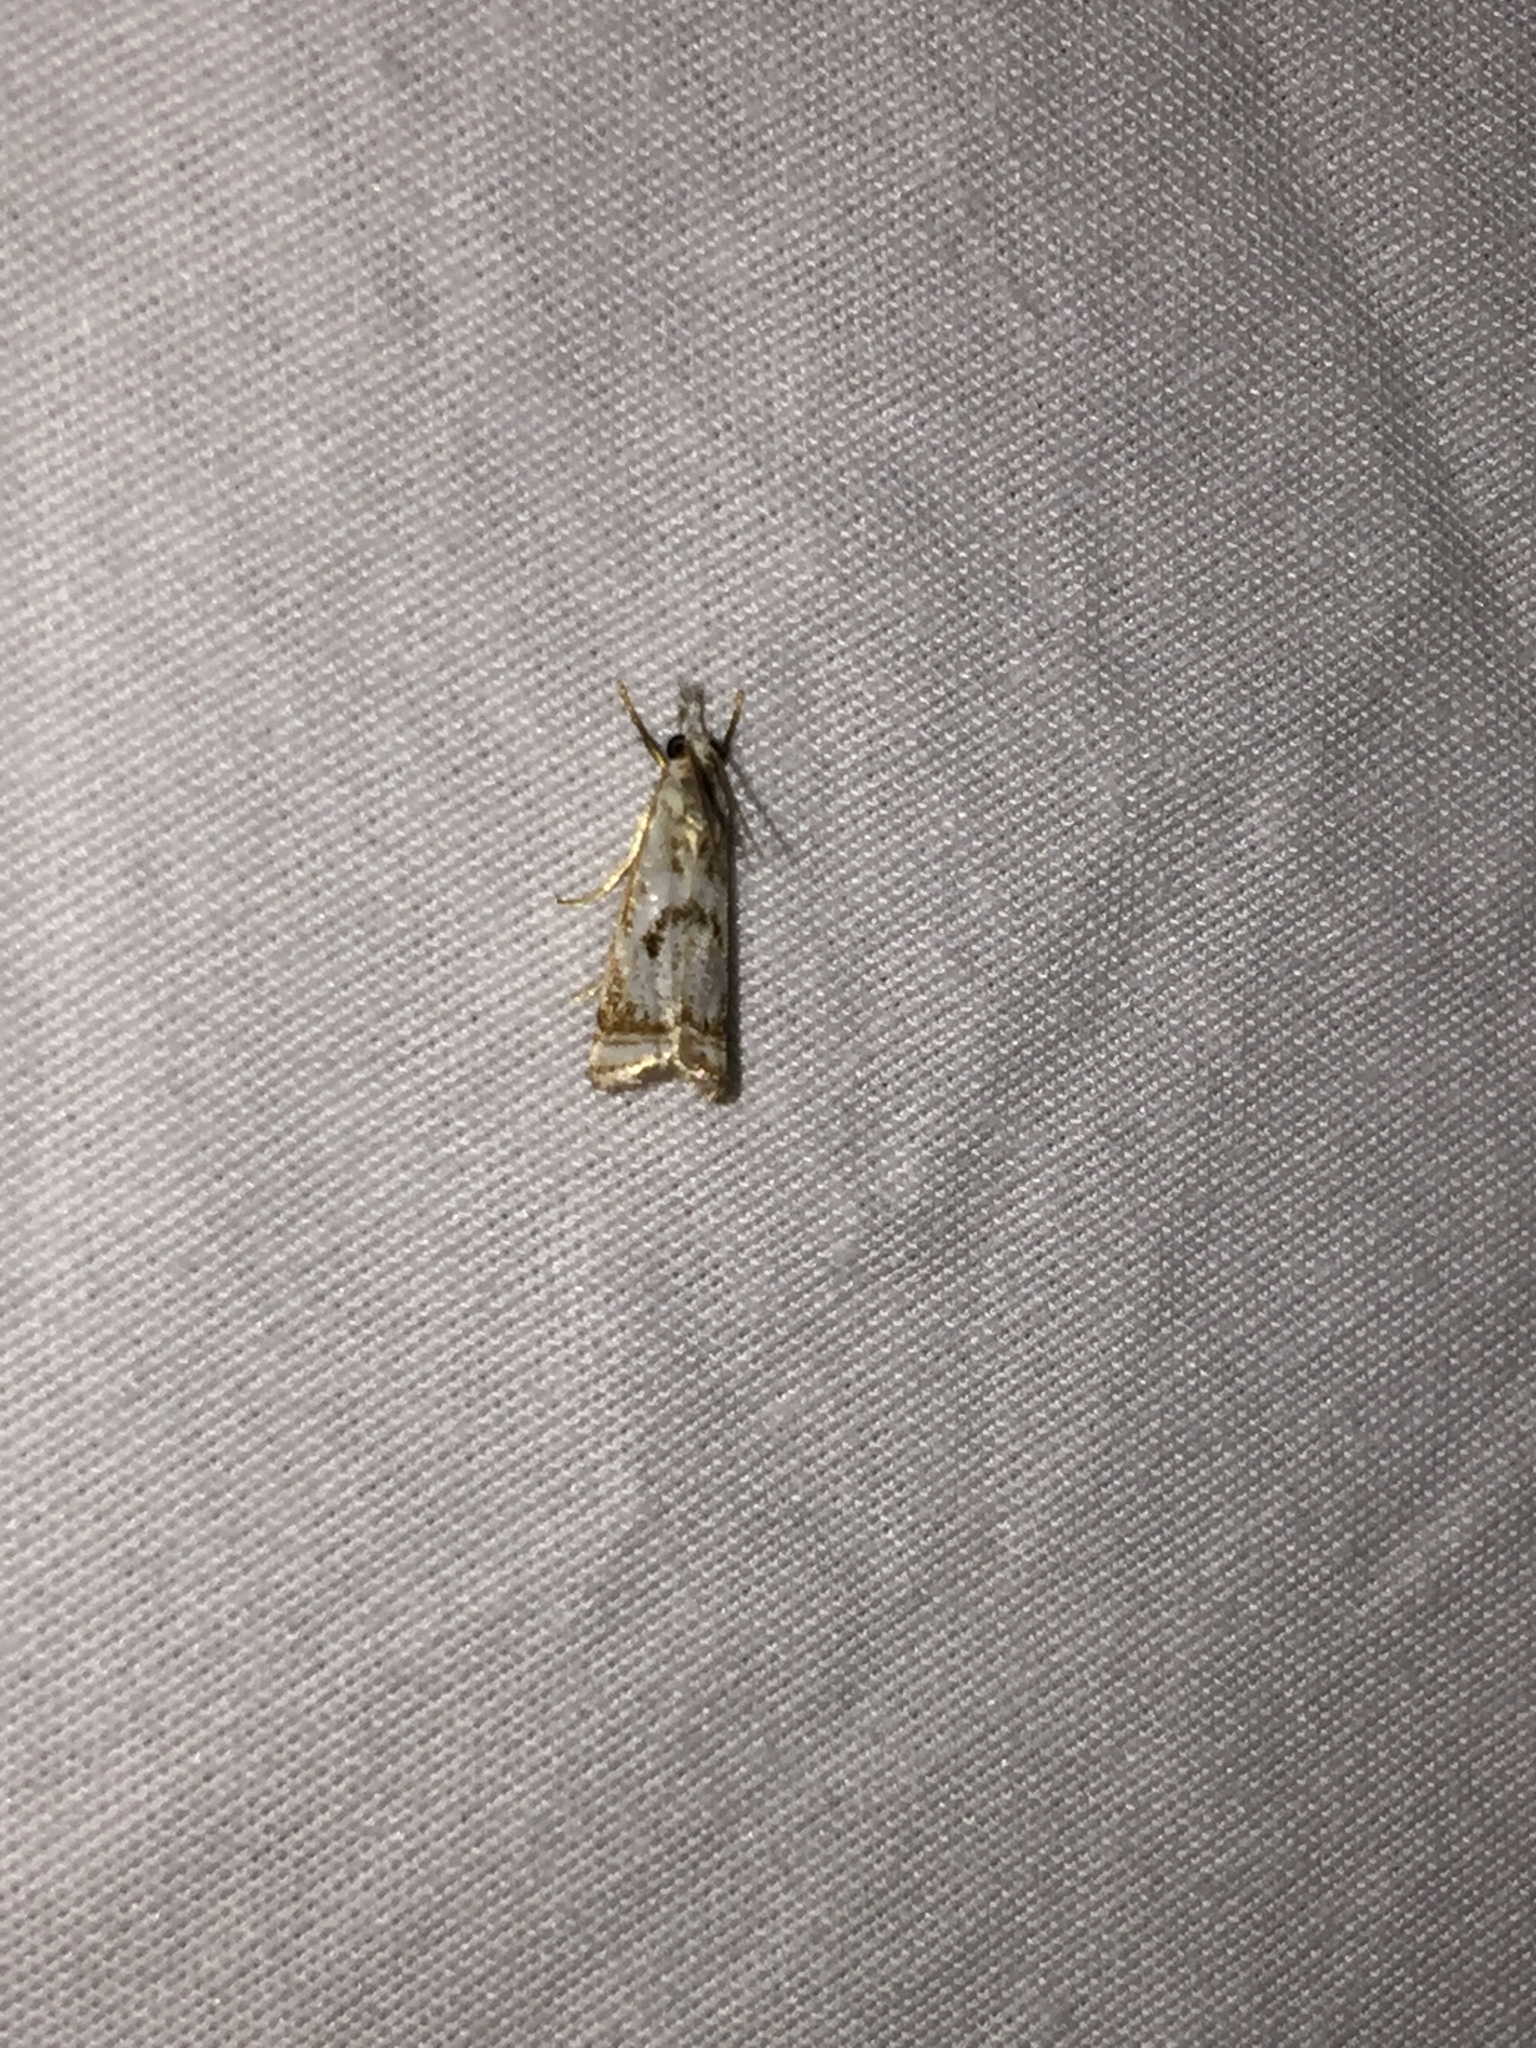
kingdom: Animalia
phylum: Arthropoda
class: Insecta
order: Lepidoptera
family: Crambidae
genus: Microcrambus
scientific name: Microcrambus elegans
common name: Elegant grass-veneer
